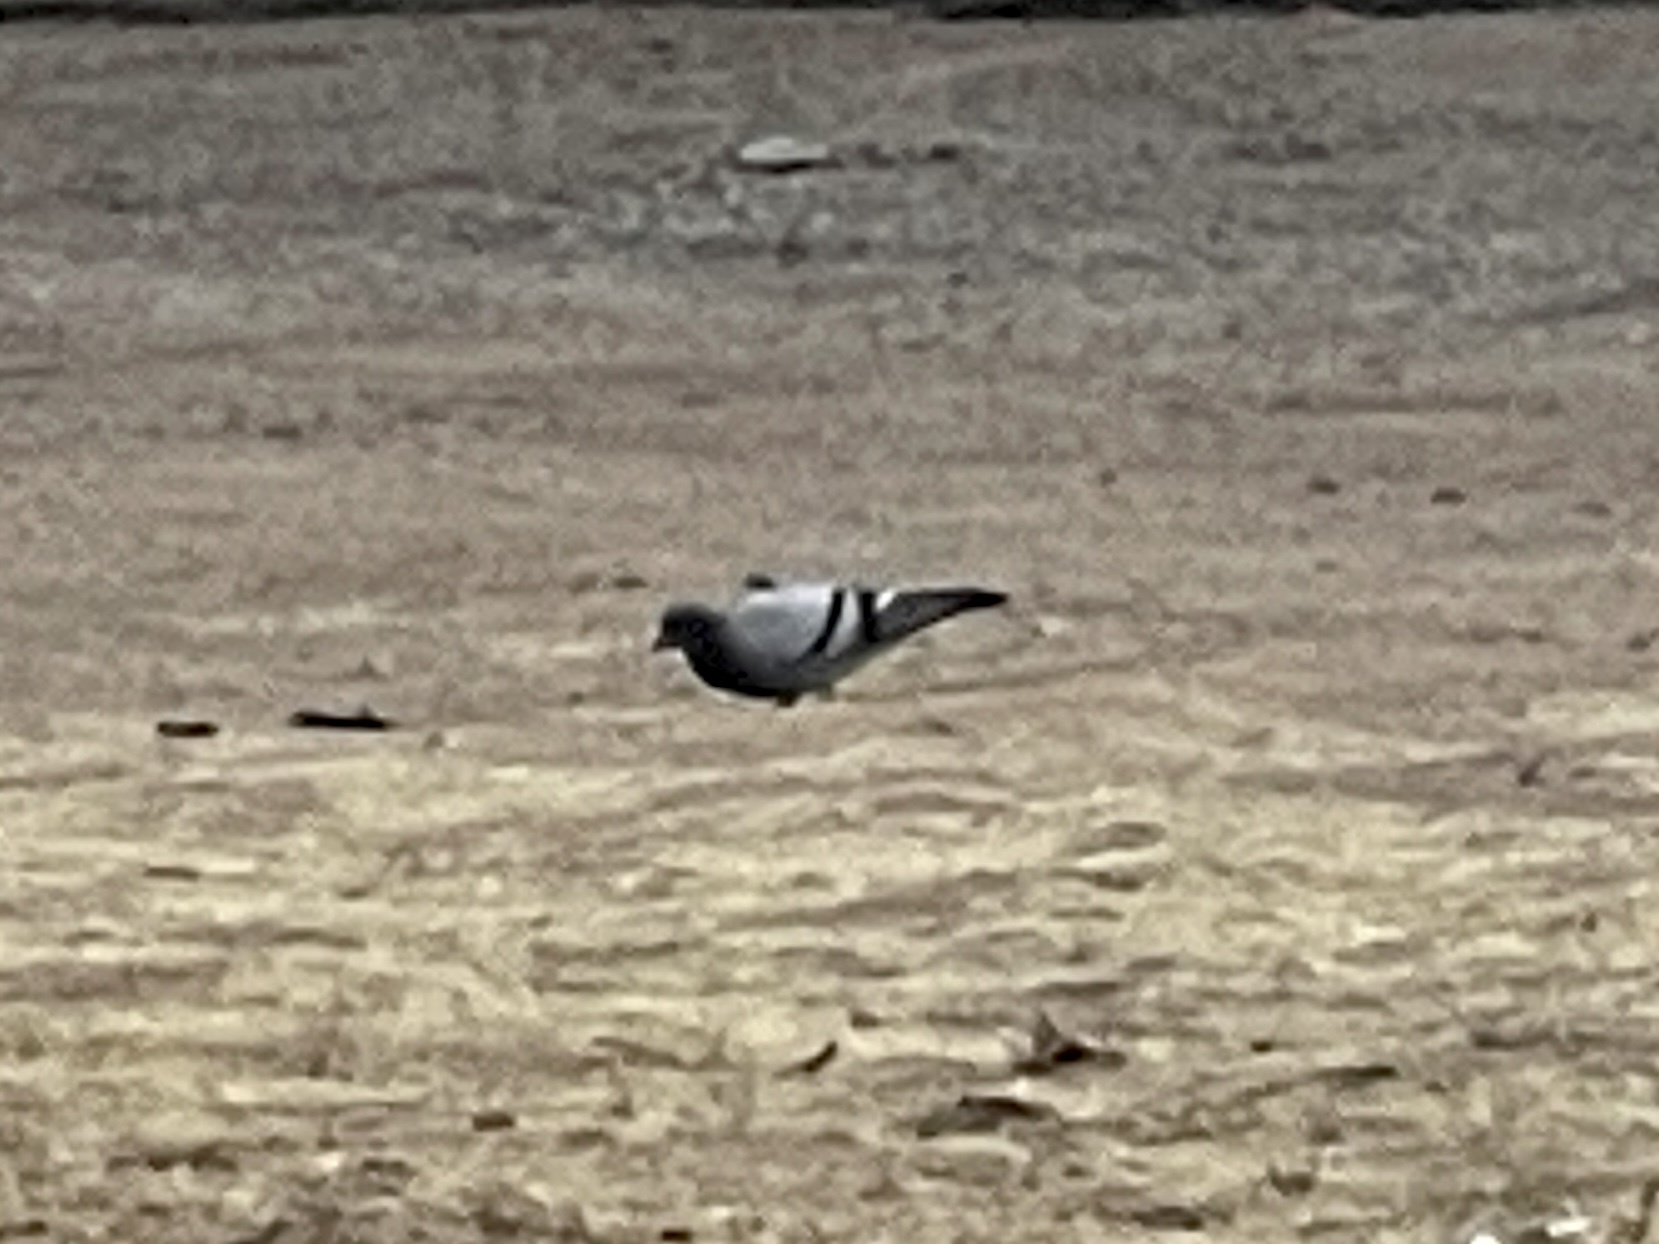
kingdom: Animalia
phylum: Chordata
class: Aves
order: Columbiformes
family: Columbidae
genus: Columba
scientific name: Columba livia
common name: Rock pigeon
